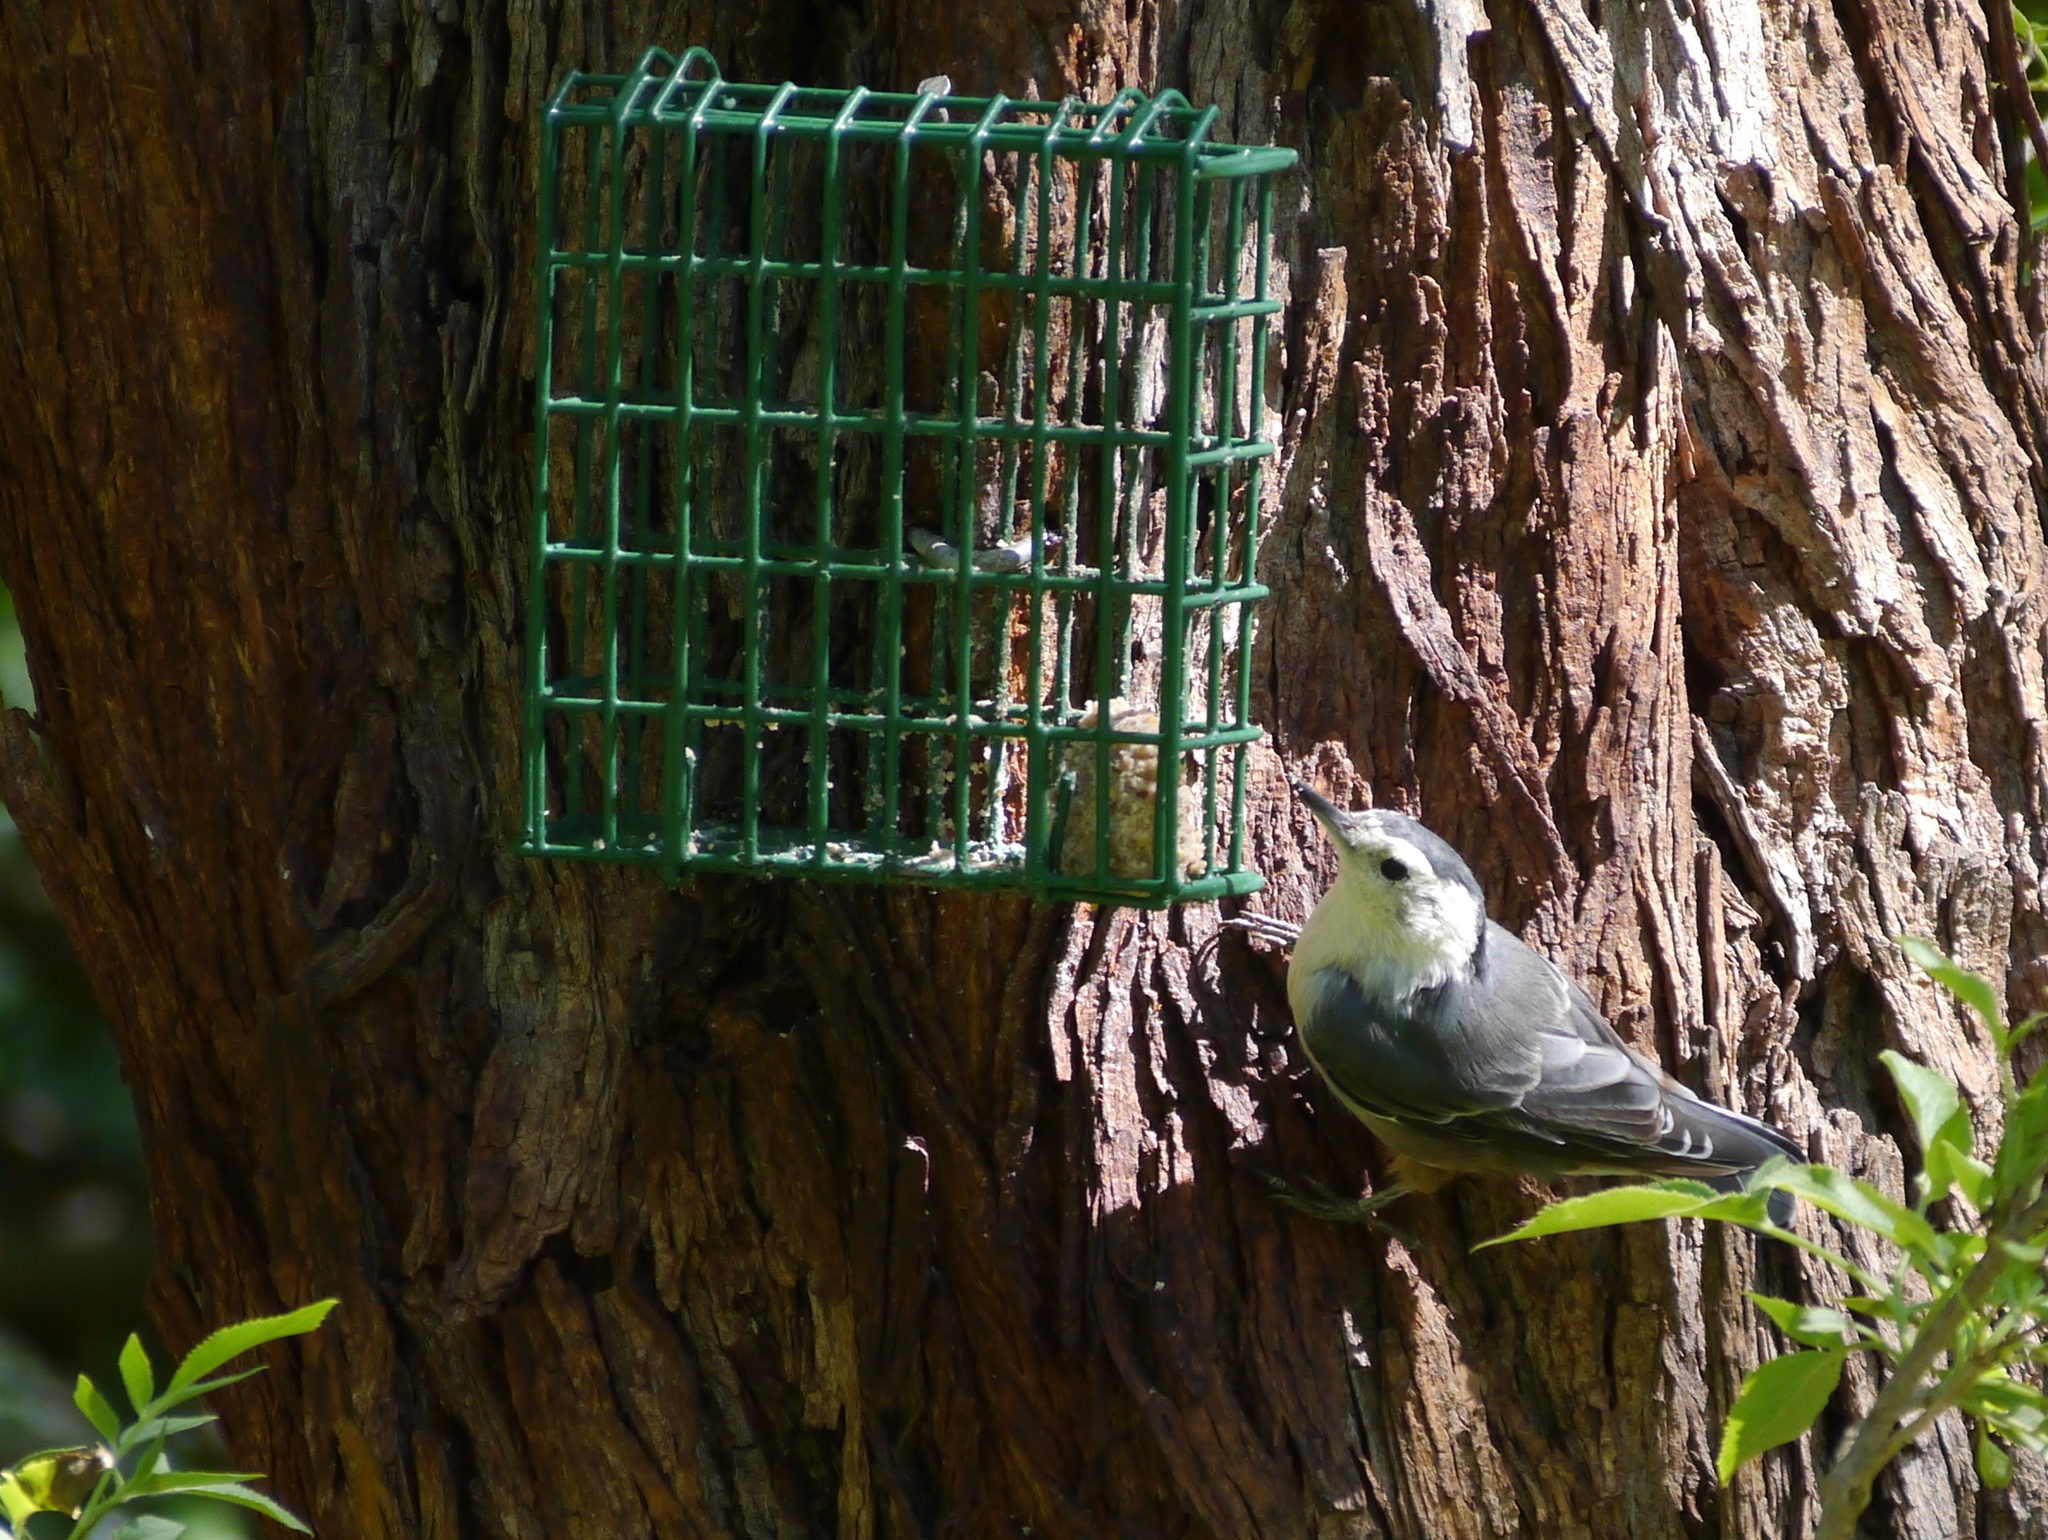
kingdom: Animalia
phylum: Chordata
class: Aves
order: Passeriformes
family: Sittidae
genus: Sitta
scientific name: Sitta carolinensis
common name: White-breasted nuthatch
